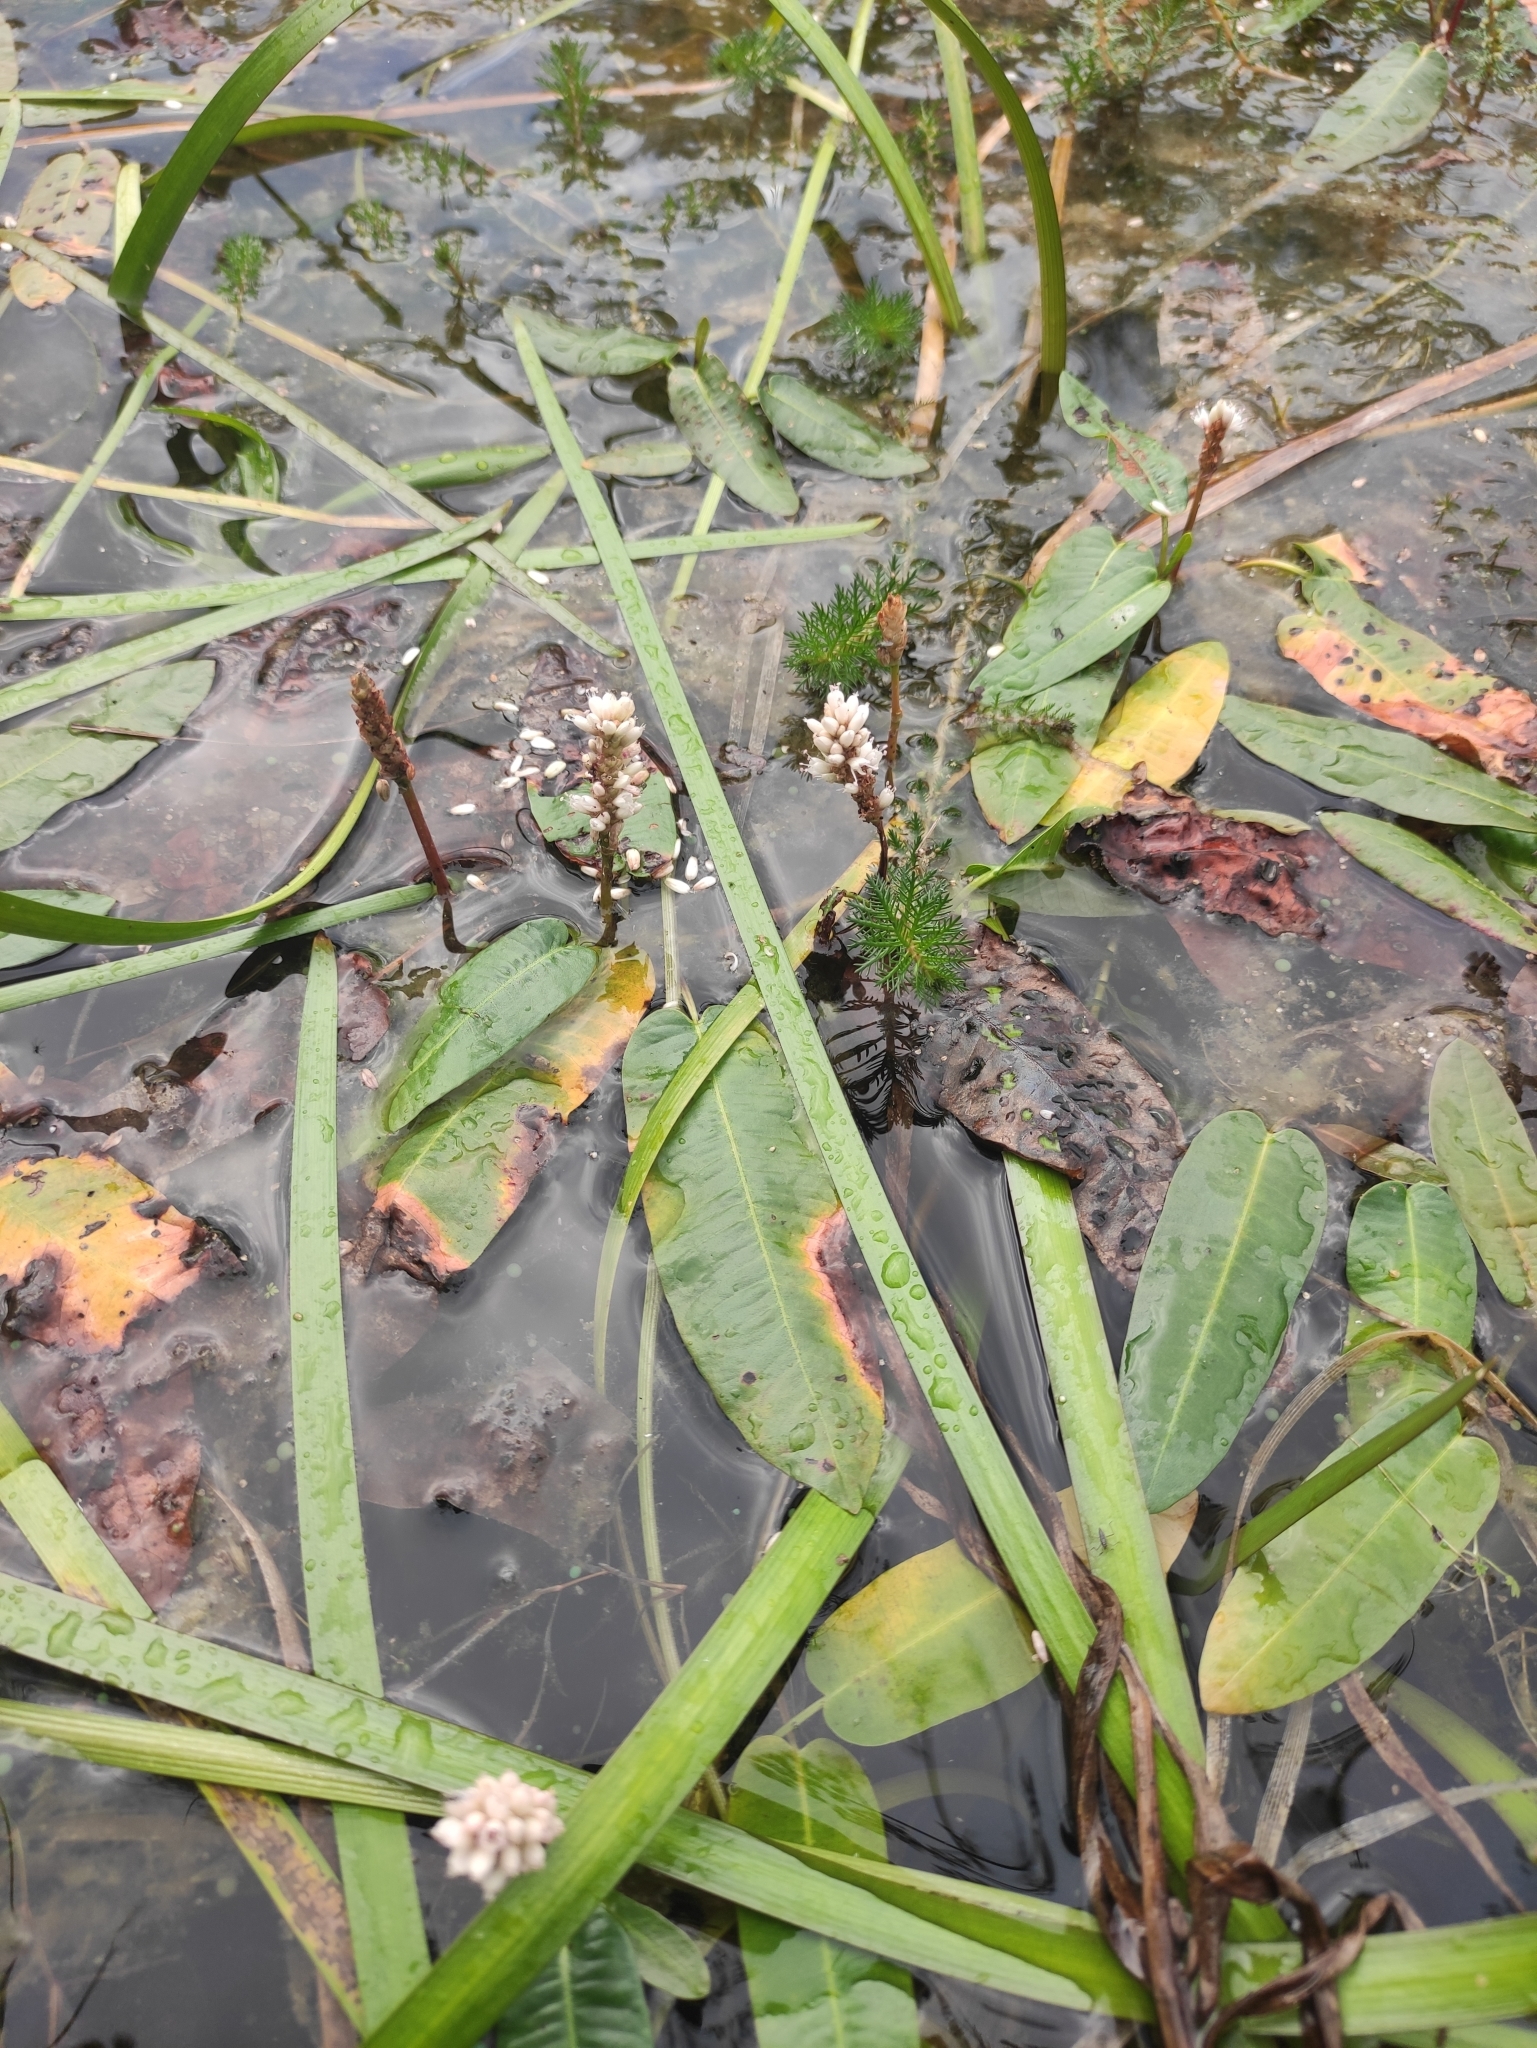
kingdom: Plantae
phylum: Tracheophyta
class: Magnoliopsida
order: Caryophyllales
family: Polygonaceae
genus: Persicaria
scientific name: Persicaria amphibia
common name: Amphibious bistort
